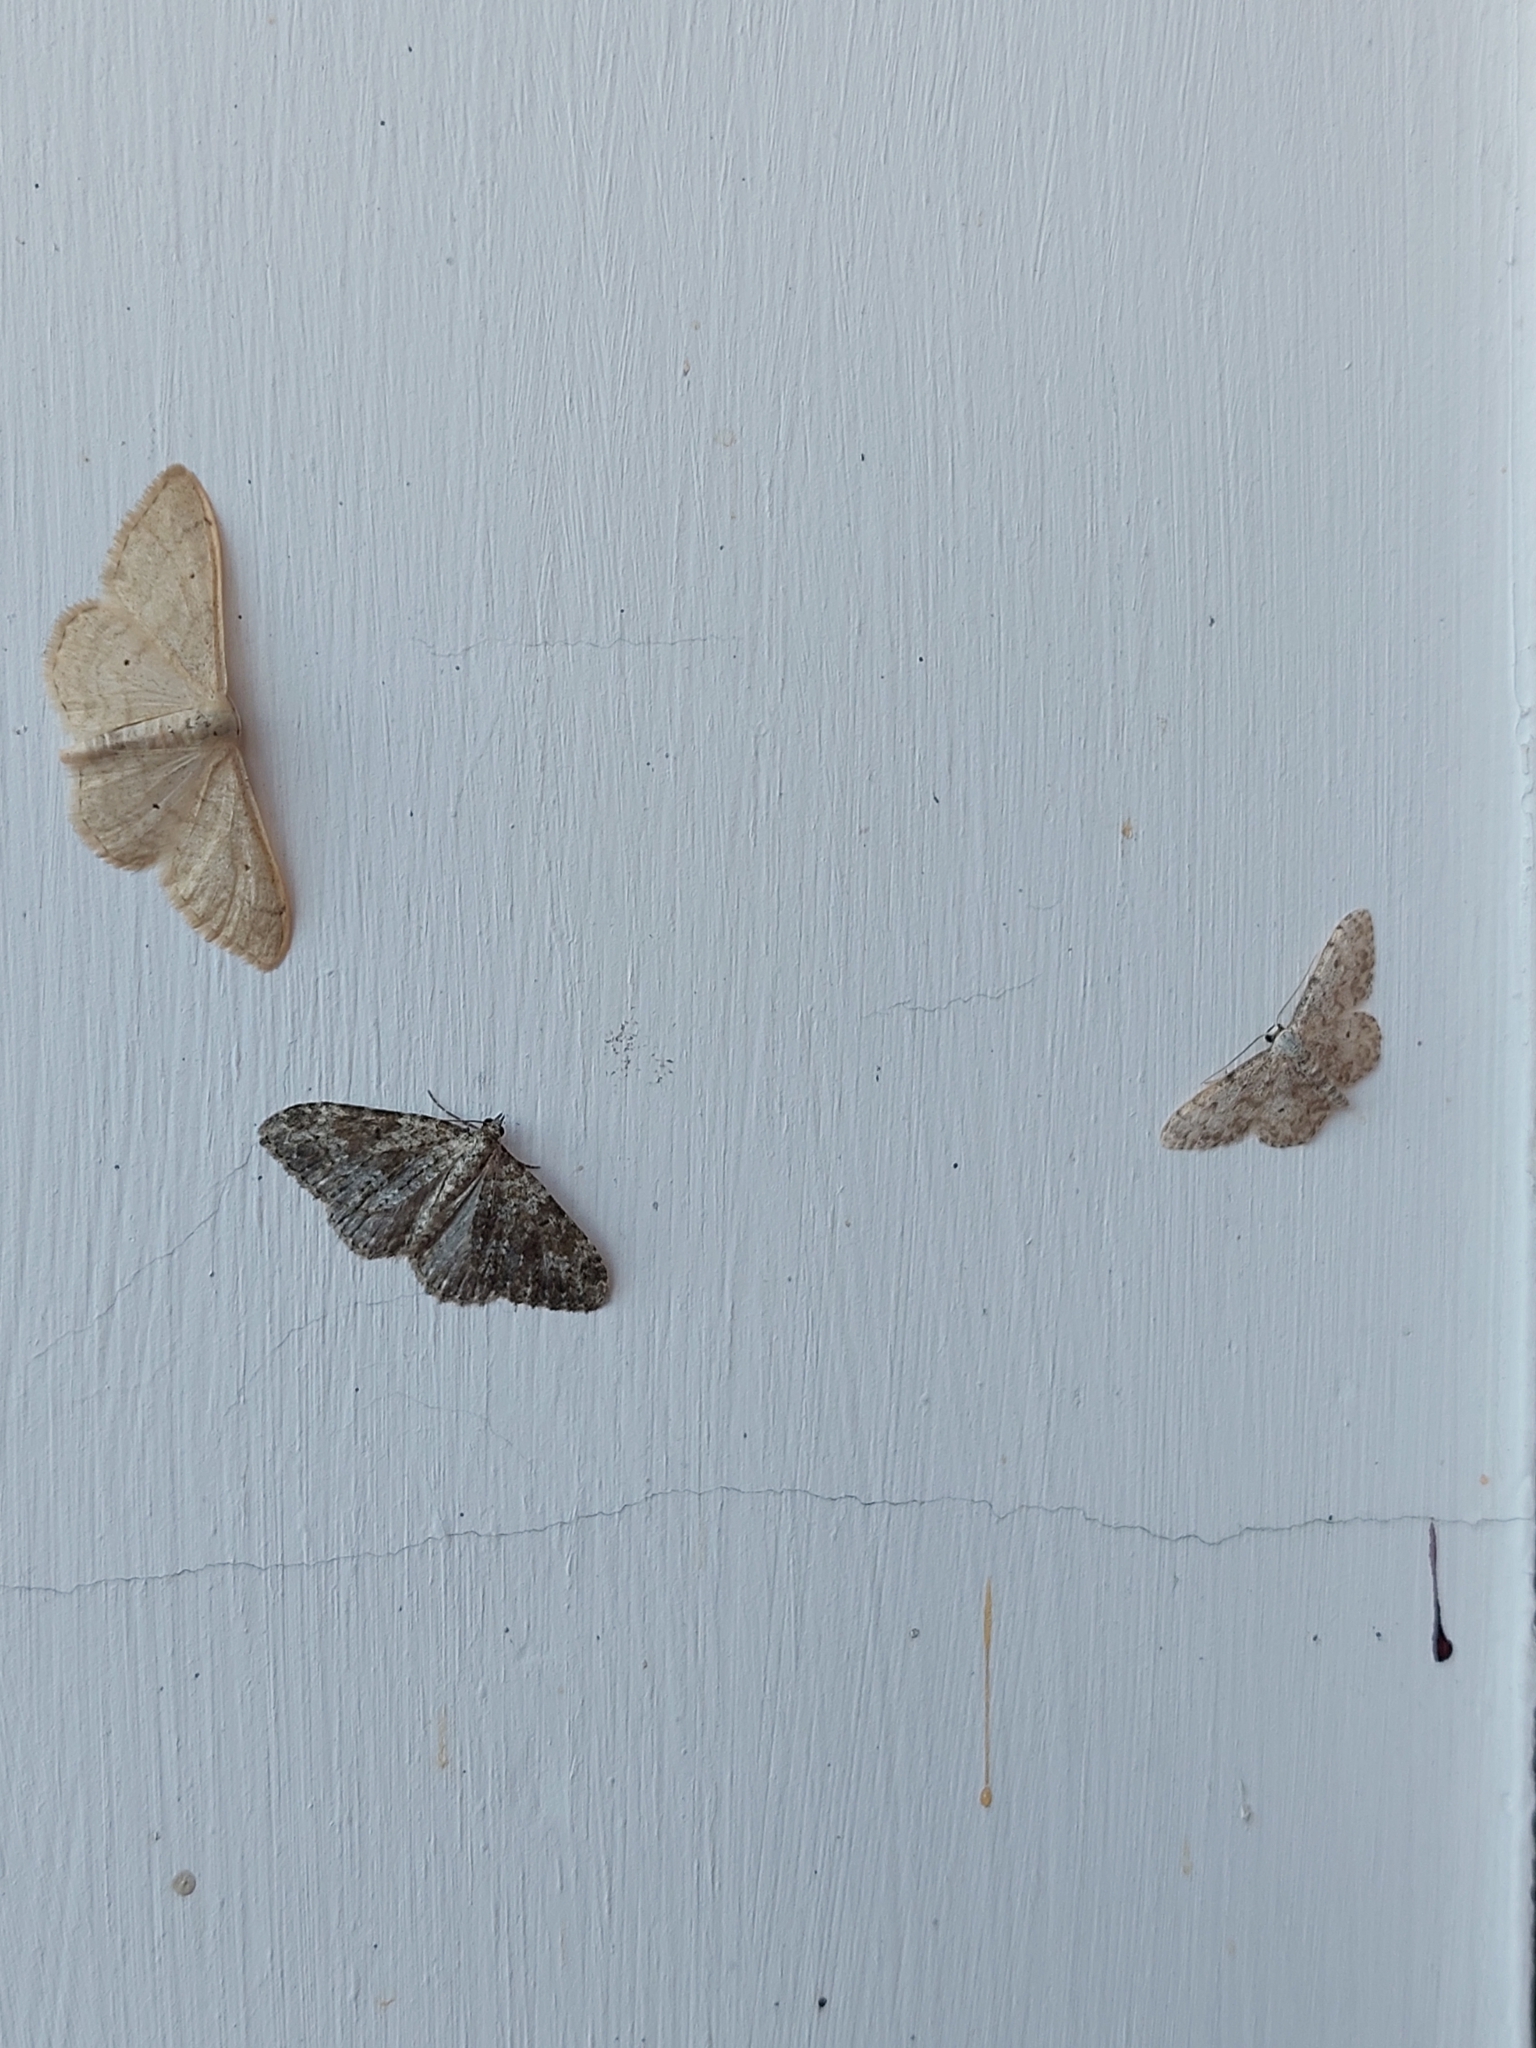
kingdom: Animalia
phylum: Arthropoda
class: Insecta
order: Lepidoptera
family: Geometridae
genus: Idaea
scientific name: Idaea camparia
